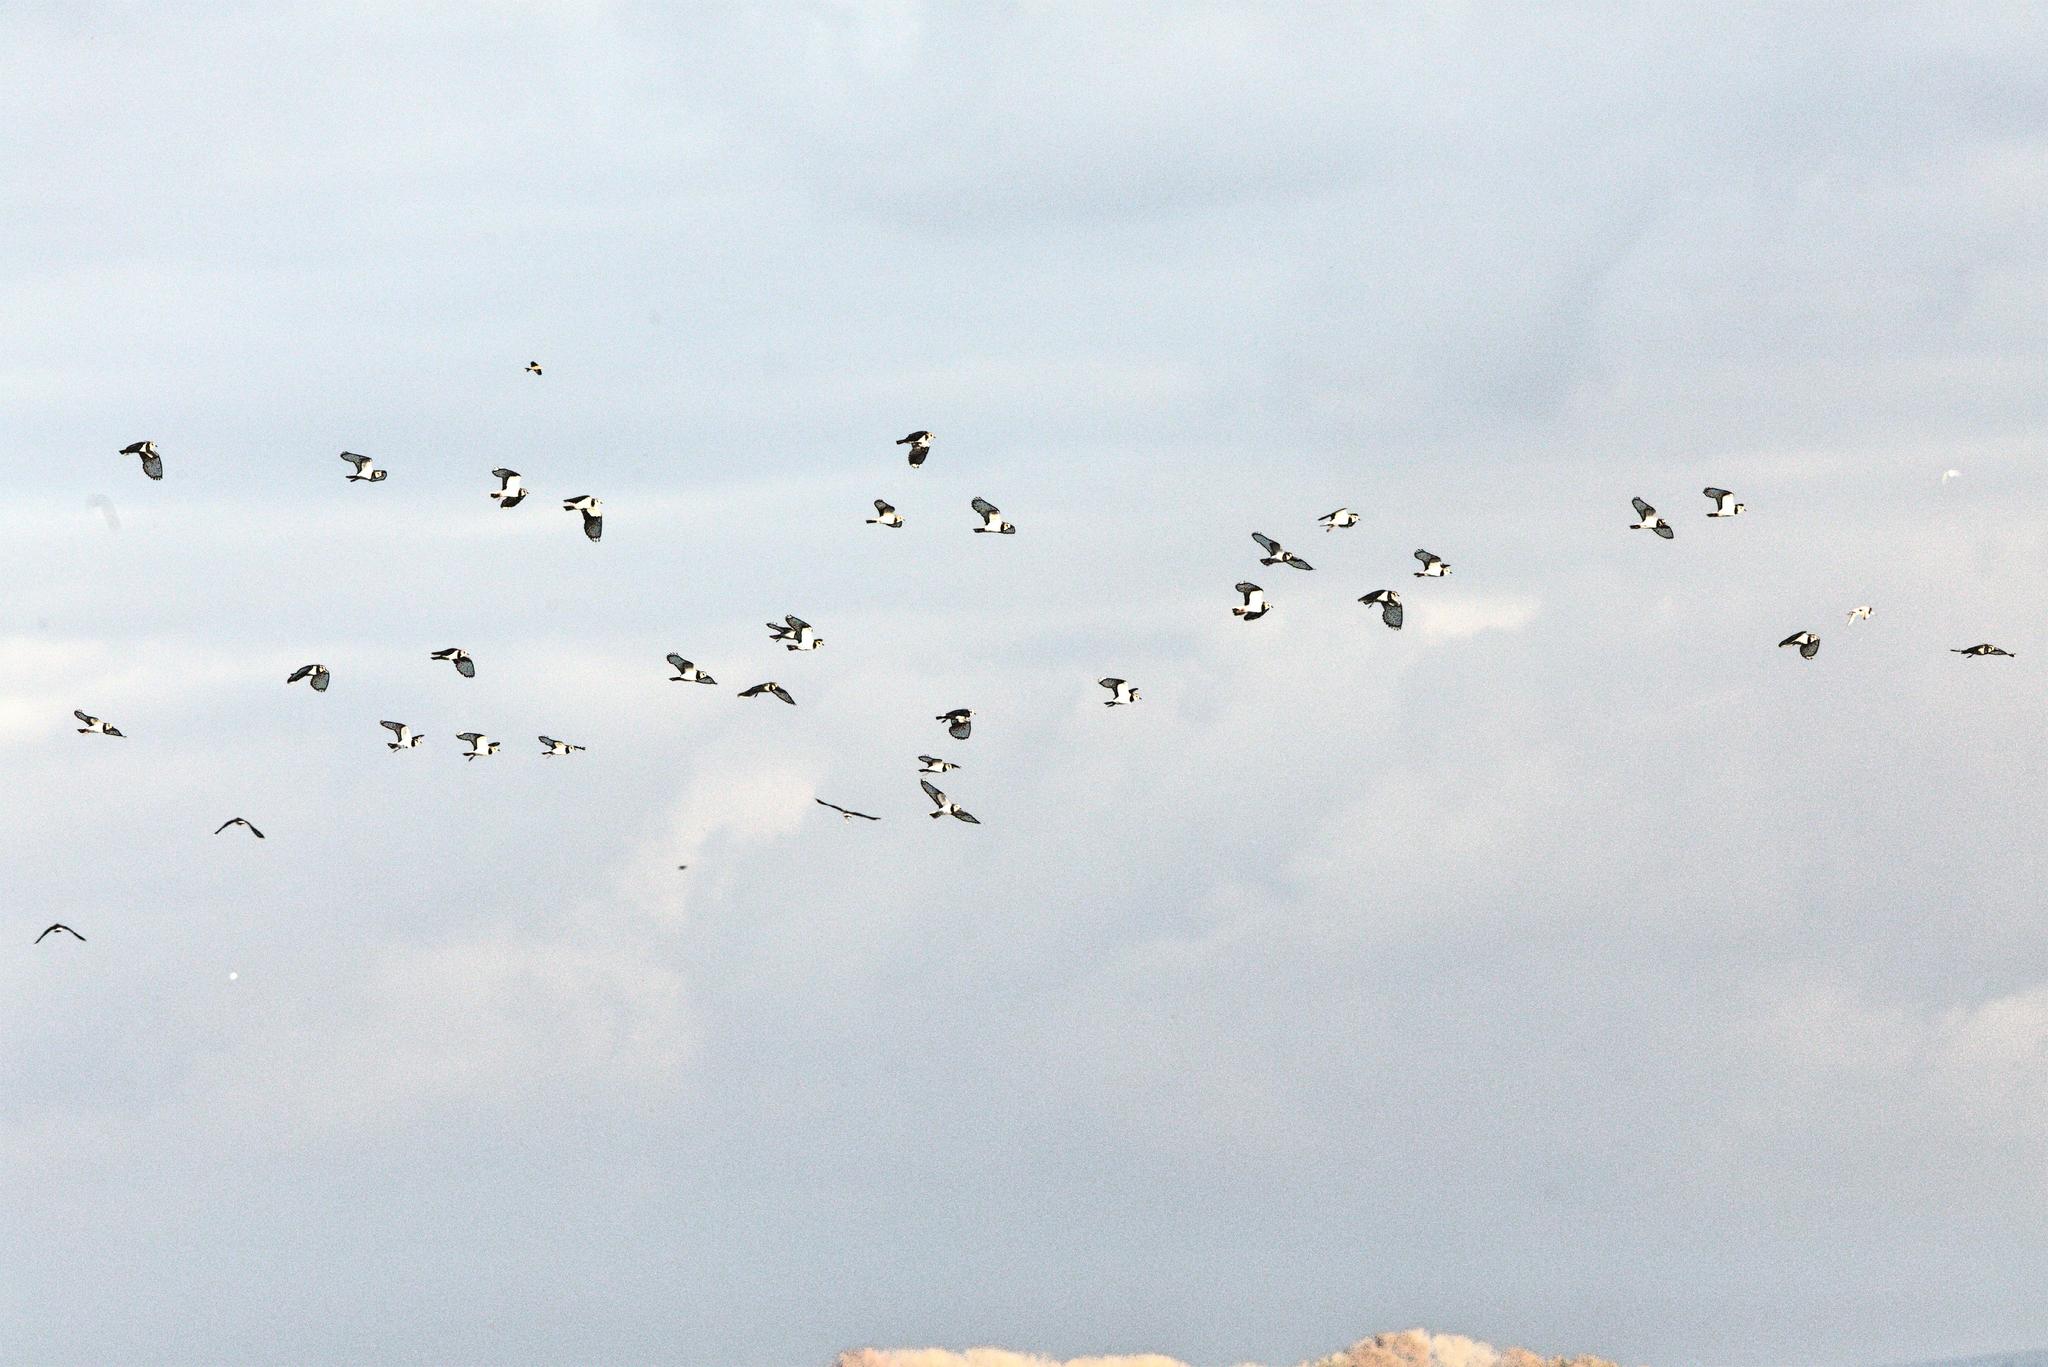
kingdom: Animalia
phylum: Chordata
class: Aves
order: Charadriiformes
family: Charadriidae
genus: Vanellus
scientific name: Vanellus vanellus
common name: Northern lapwing
